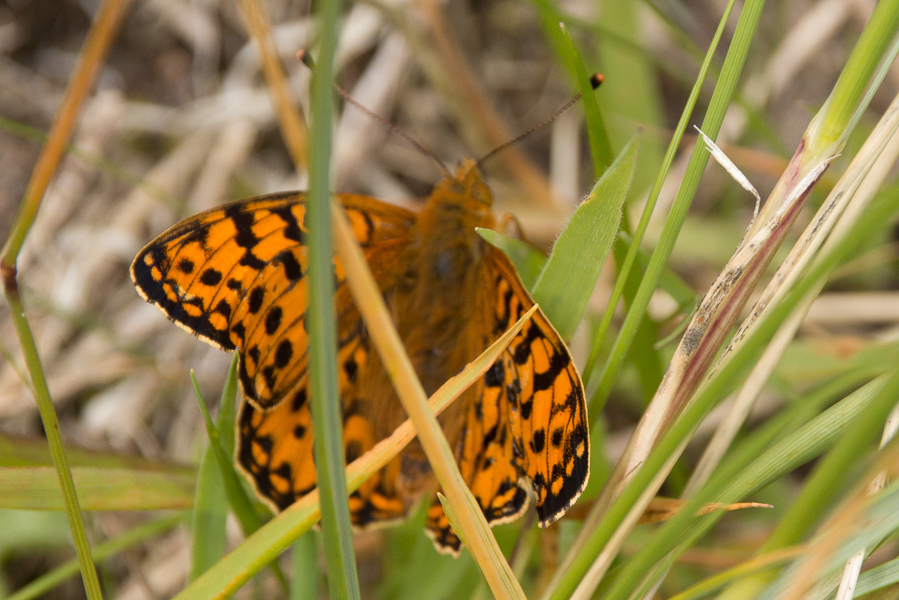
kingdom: Animalia
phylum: Arthropoda
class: Insecta
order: Lepidoptera
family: Nymphalidae
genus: Speyeria
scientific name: Speyeria aglaja
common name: Dark green fritillary
